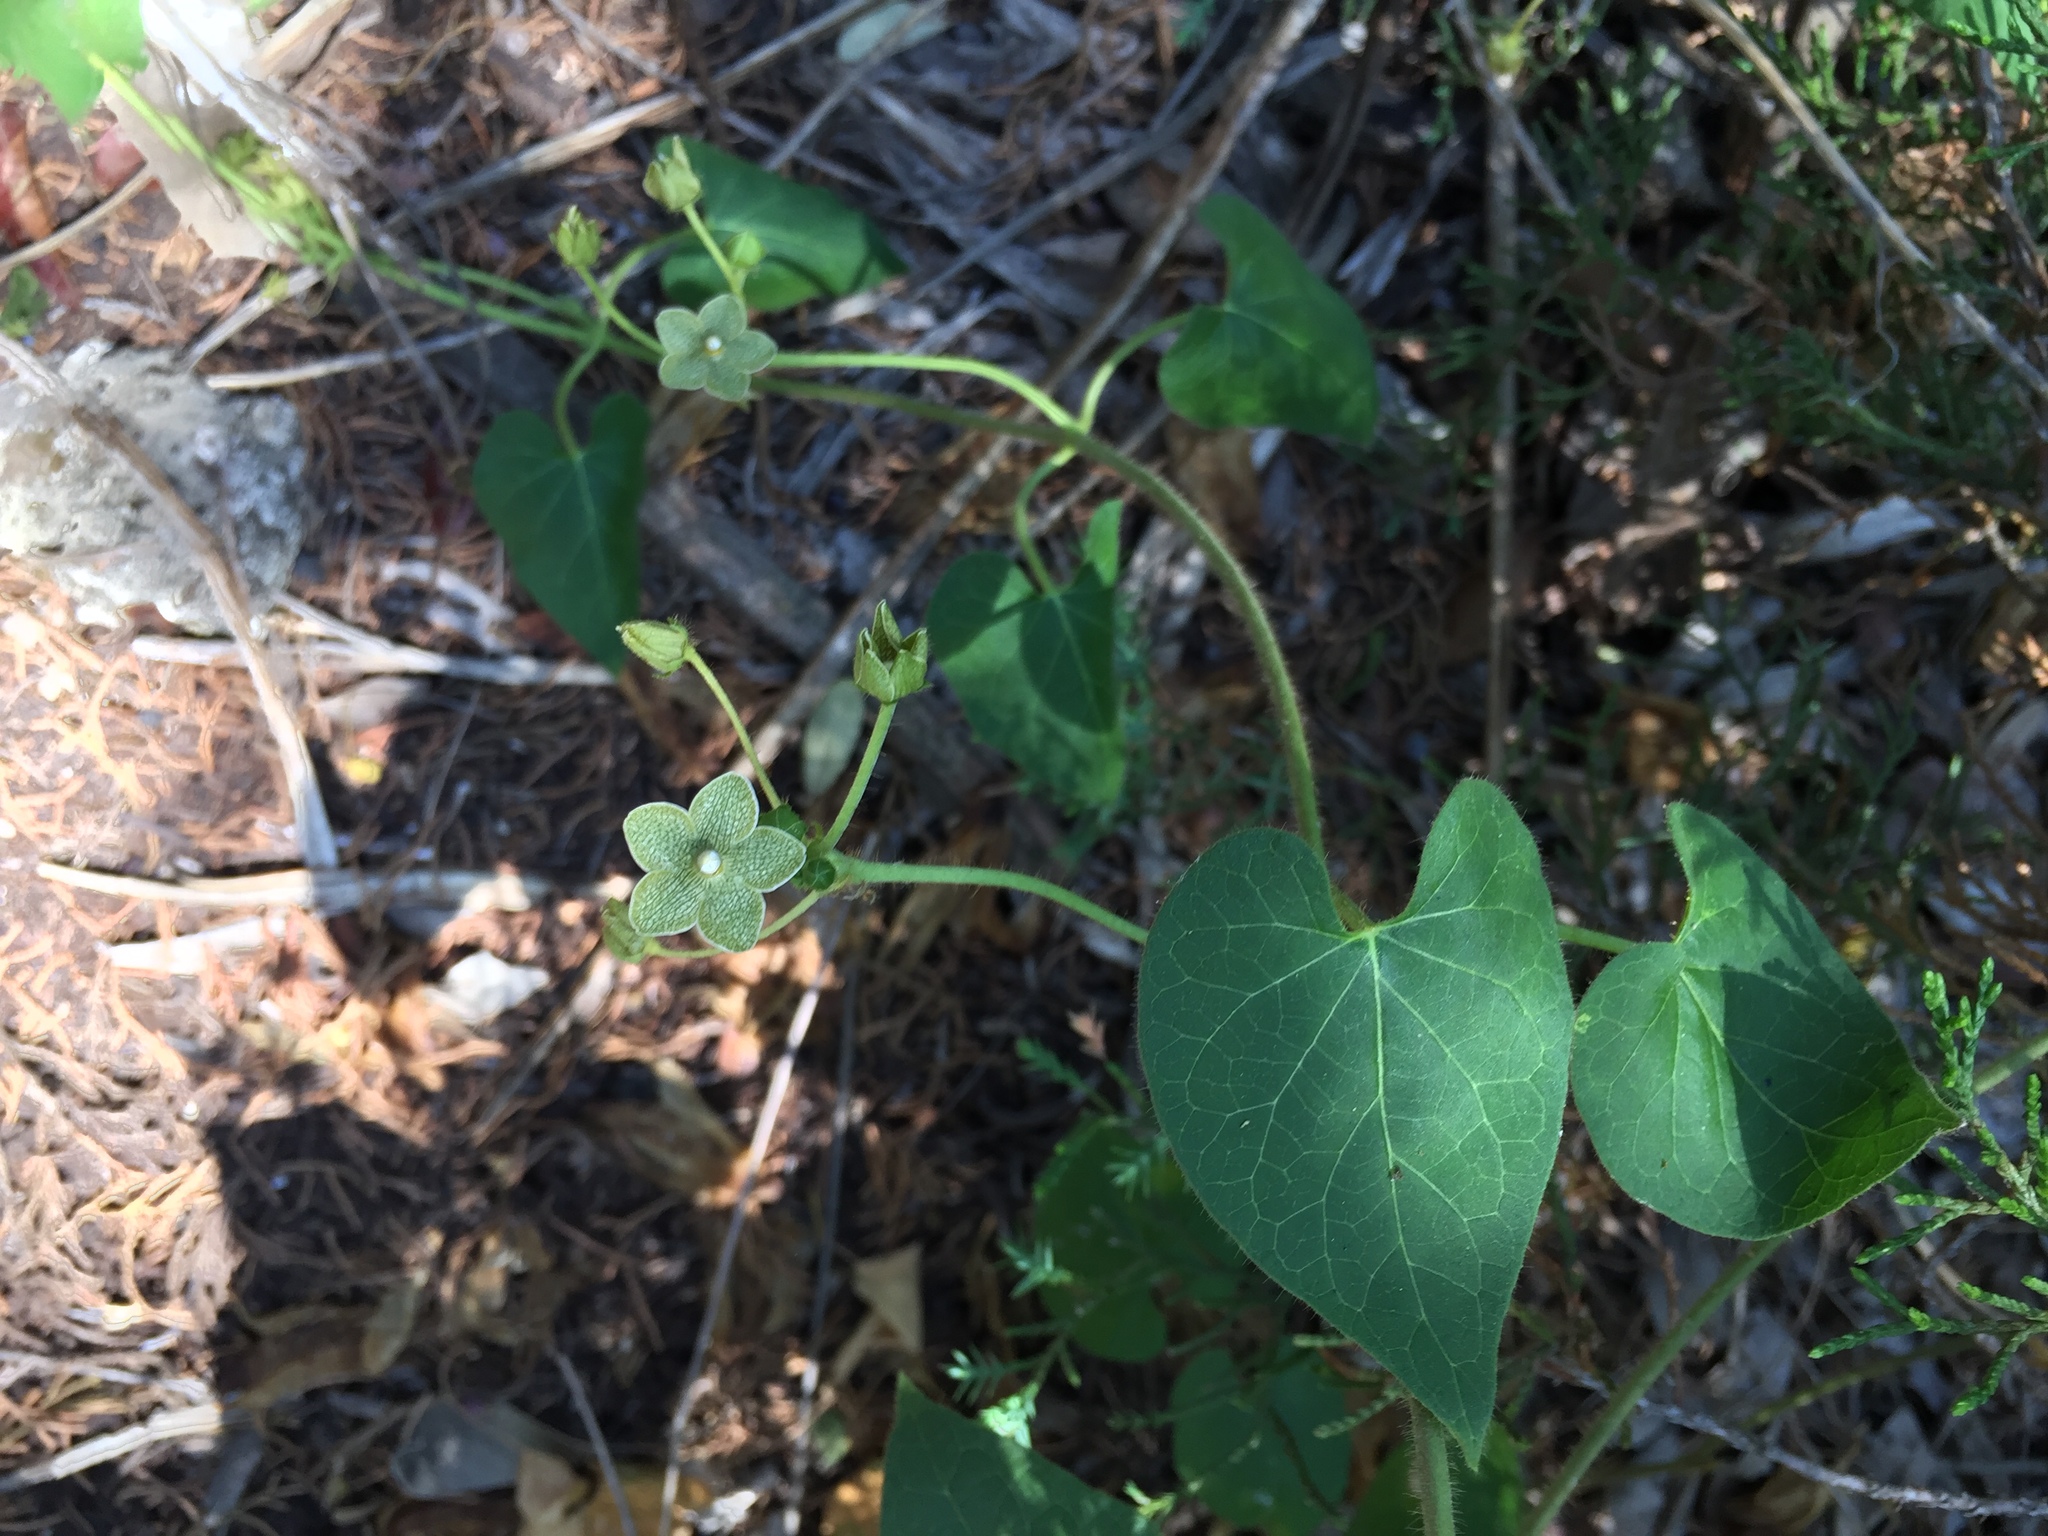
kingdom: Plantae
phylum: Tracheophyta
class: Magnoliopsida
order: Gentianales
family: Apocynaceae
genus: Dictyanthus
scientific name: Dictyanthus reticulatus
